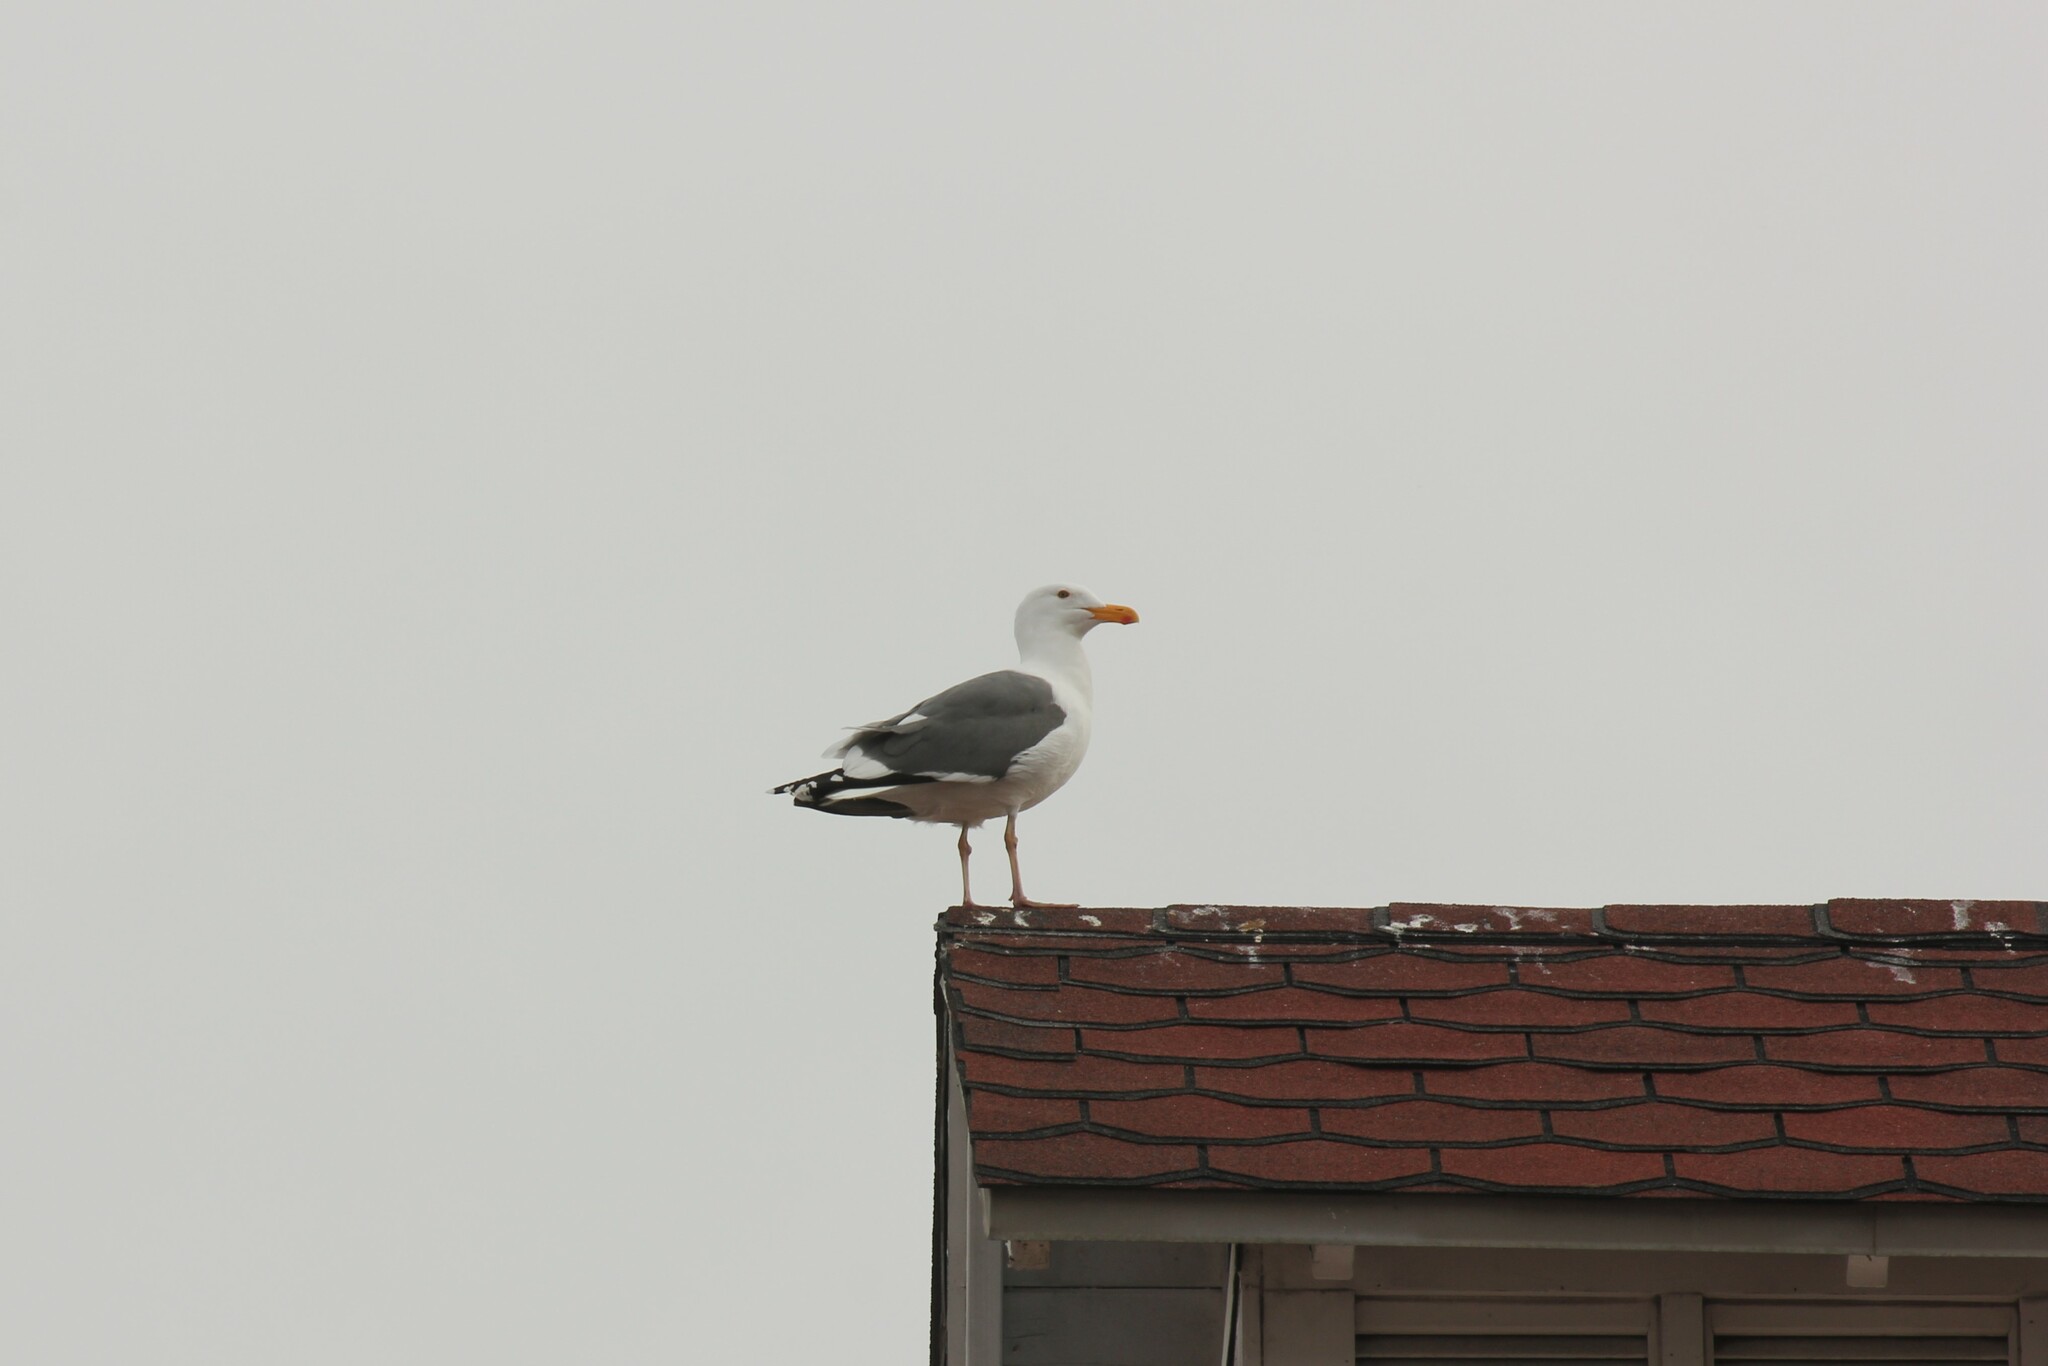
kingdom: Animalia
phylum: Chordata
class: Aves
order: Charadriiformes
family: Laridae
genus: Larus
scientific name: Larus occidentalis
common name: Western gull
